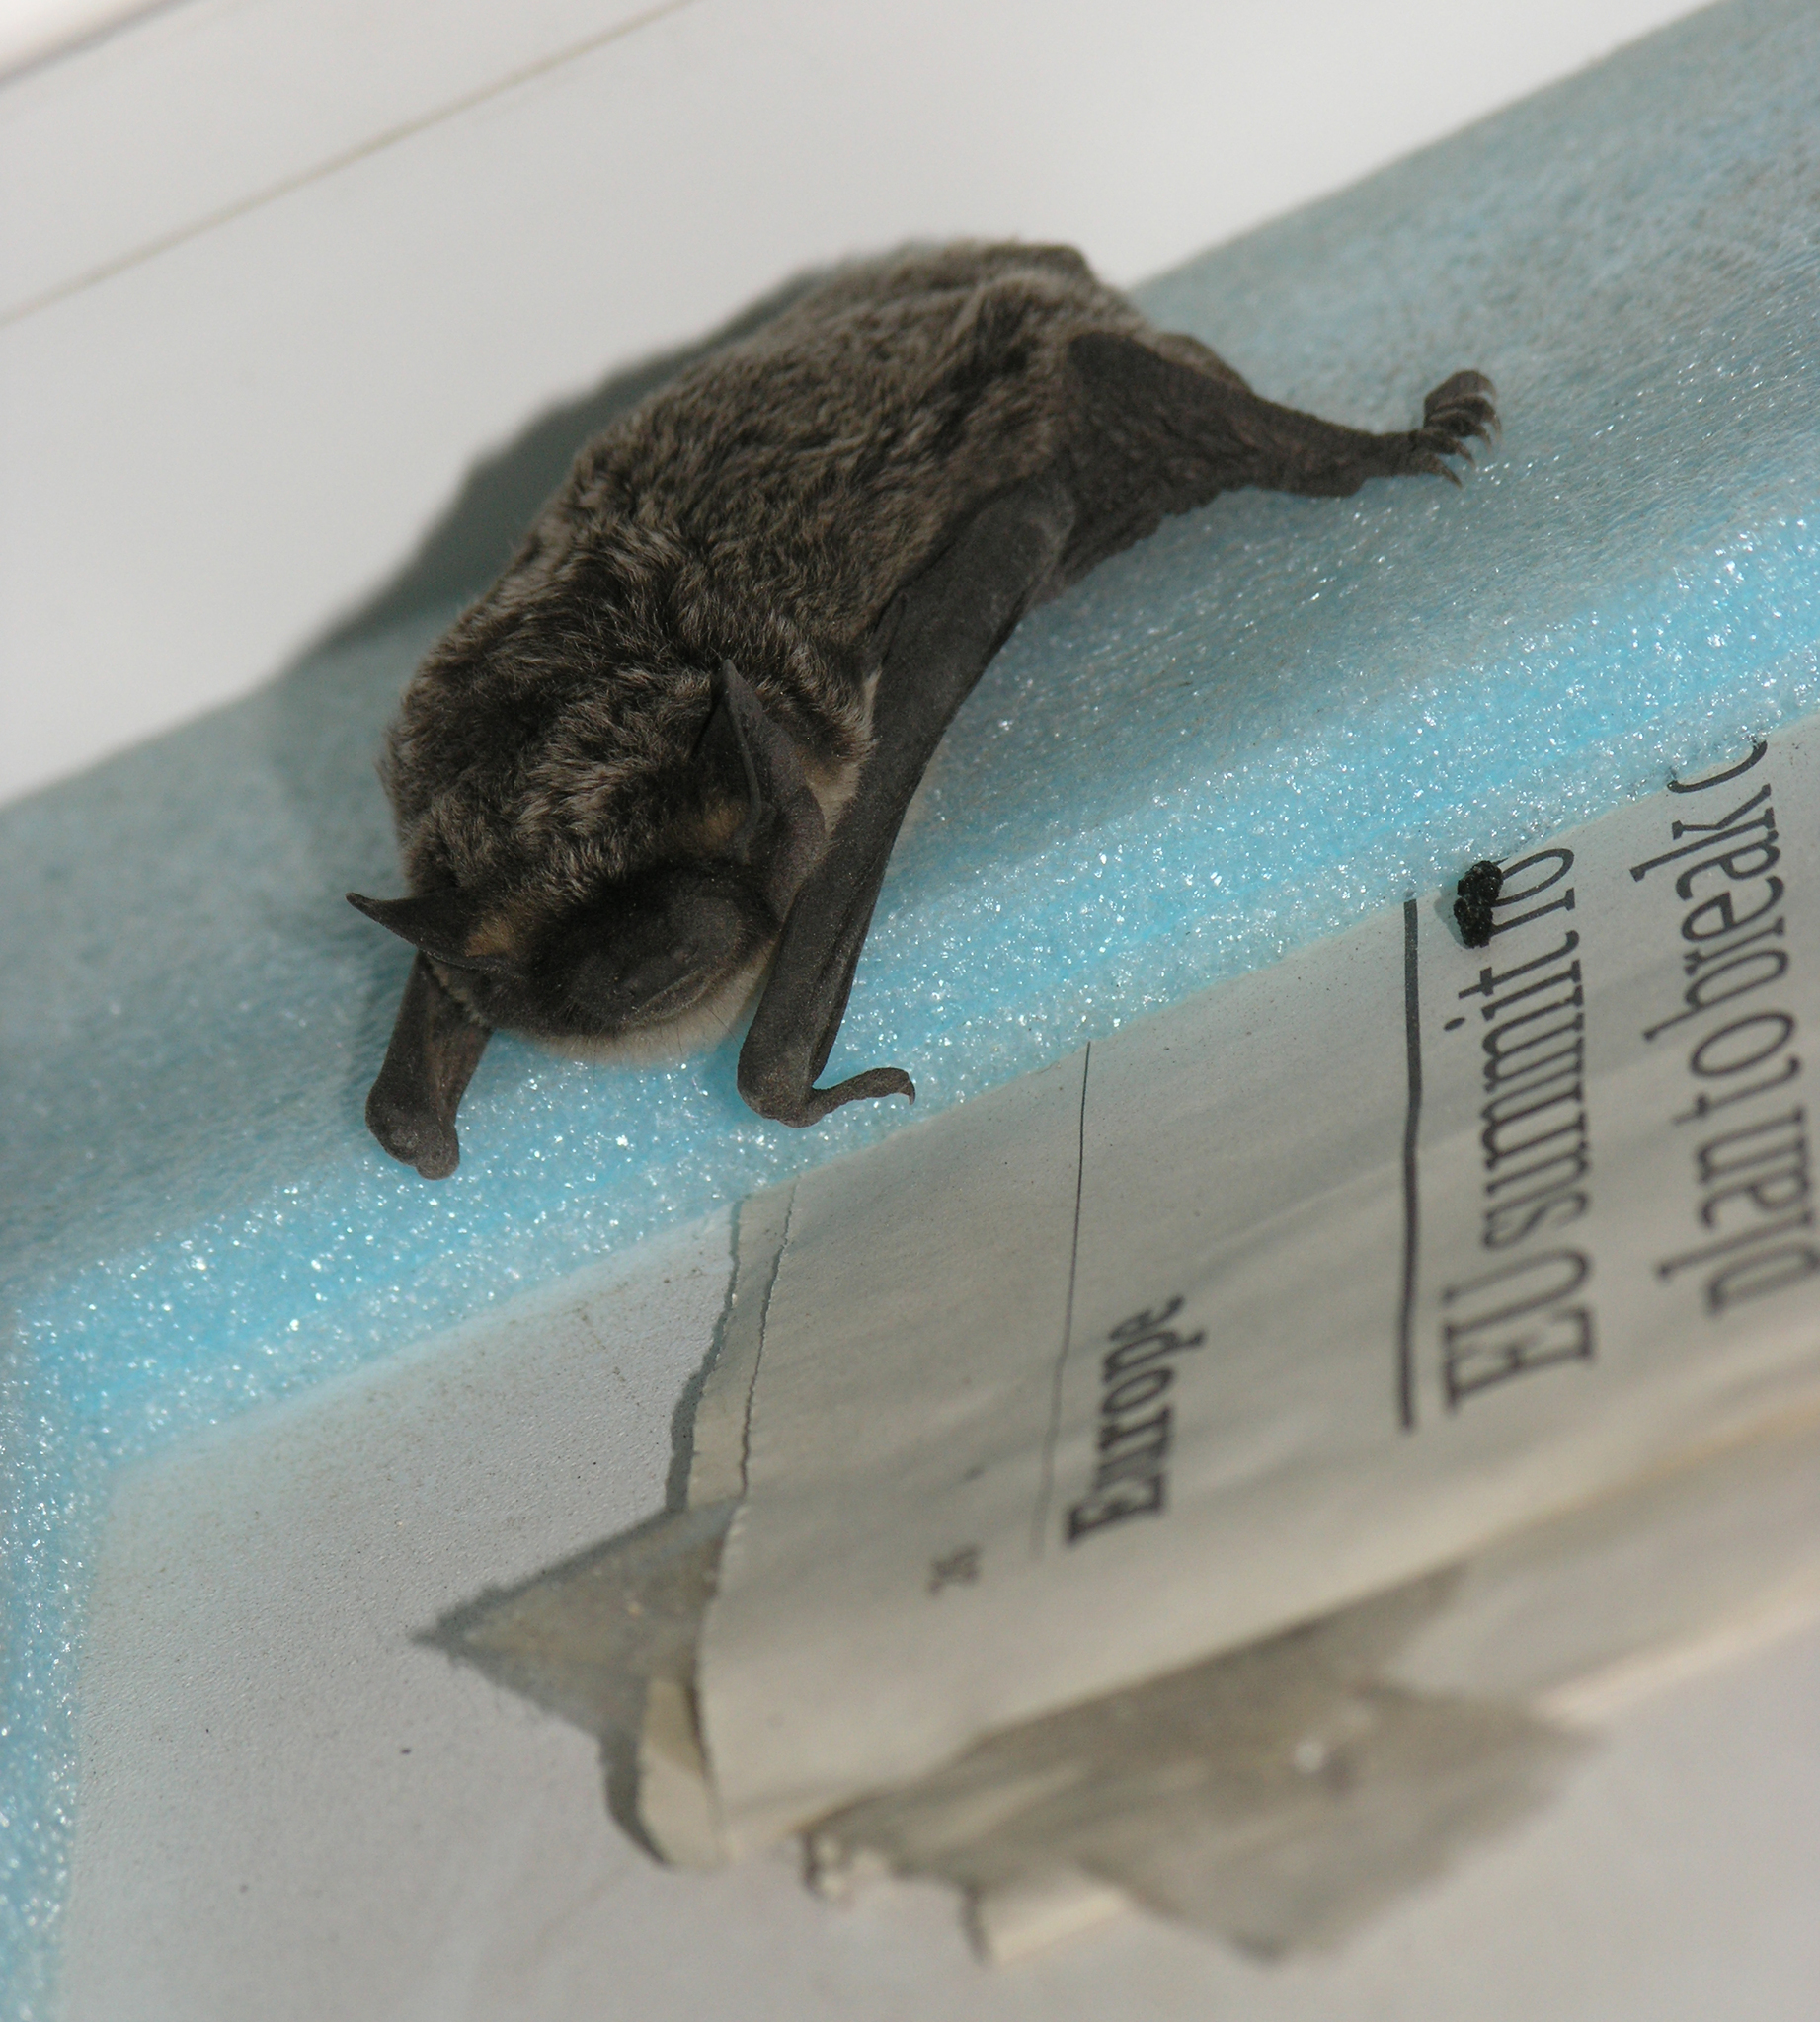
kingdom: Animalia
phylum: Chordata
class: Mammalia
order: Chiroptera
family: Vespertilionidae
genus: Vespertilio
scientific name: Vespertilio murinus
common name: Particolored bat
